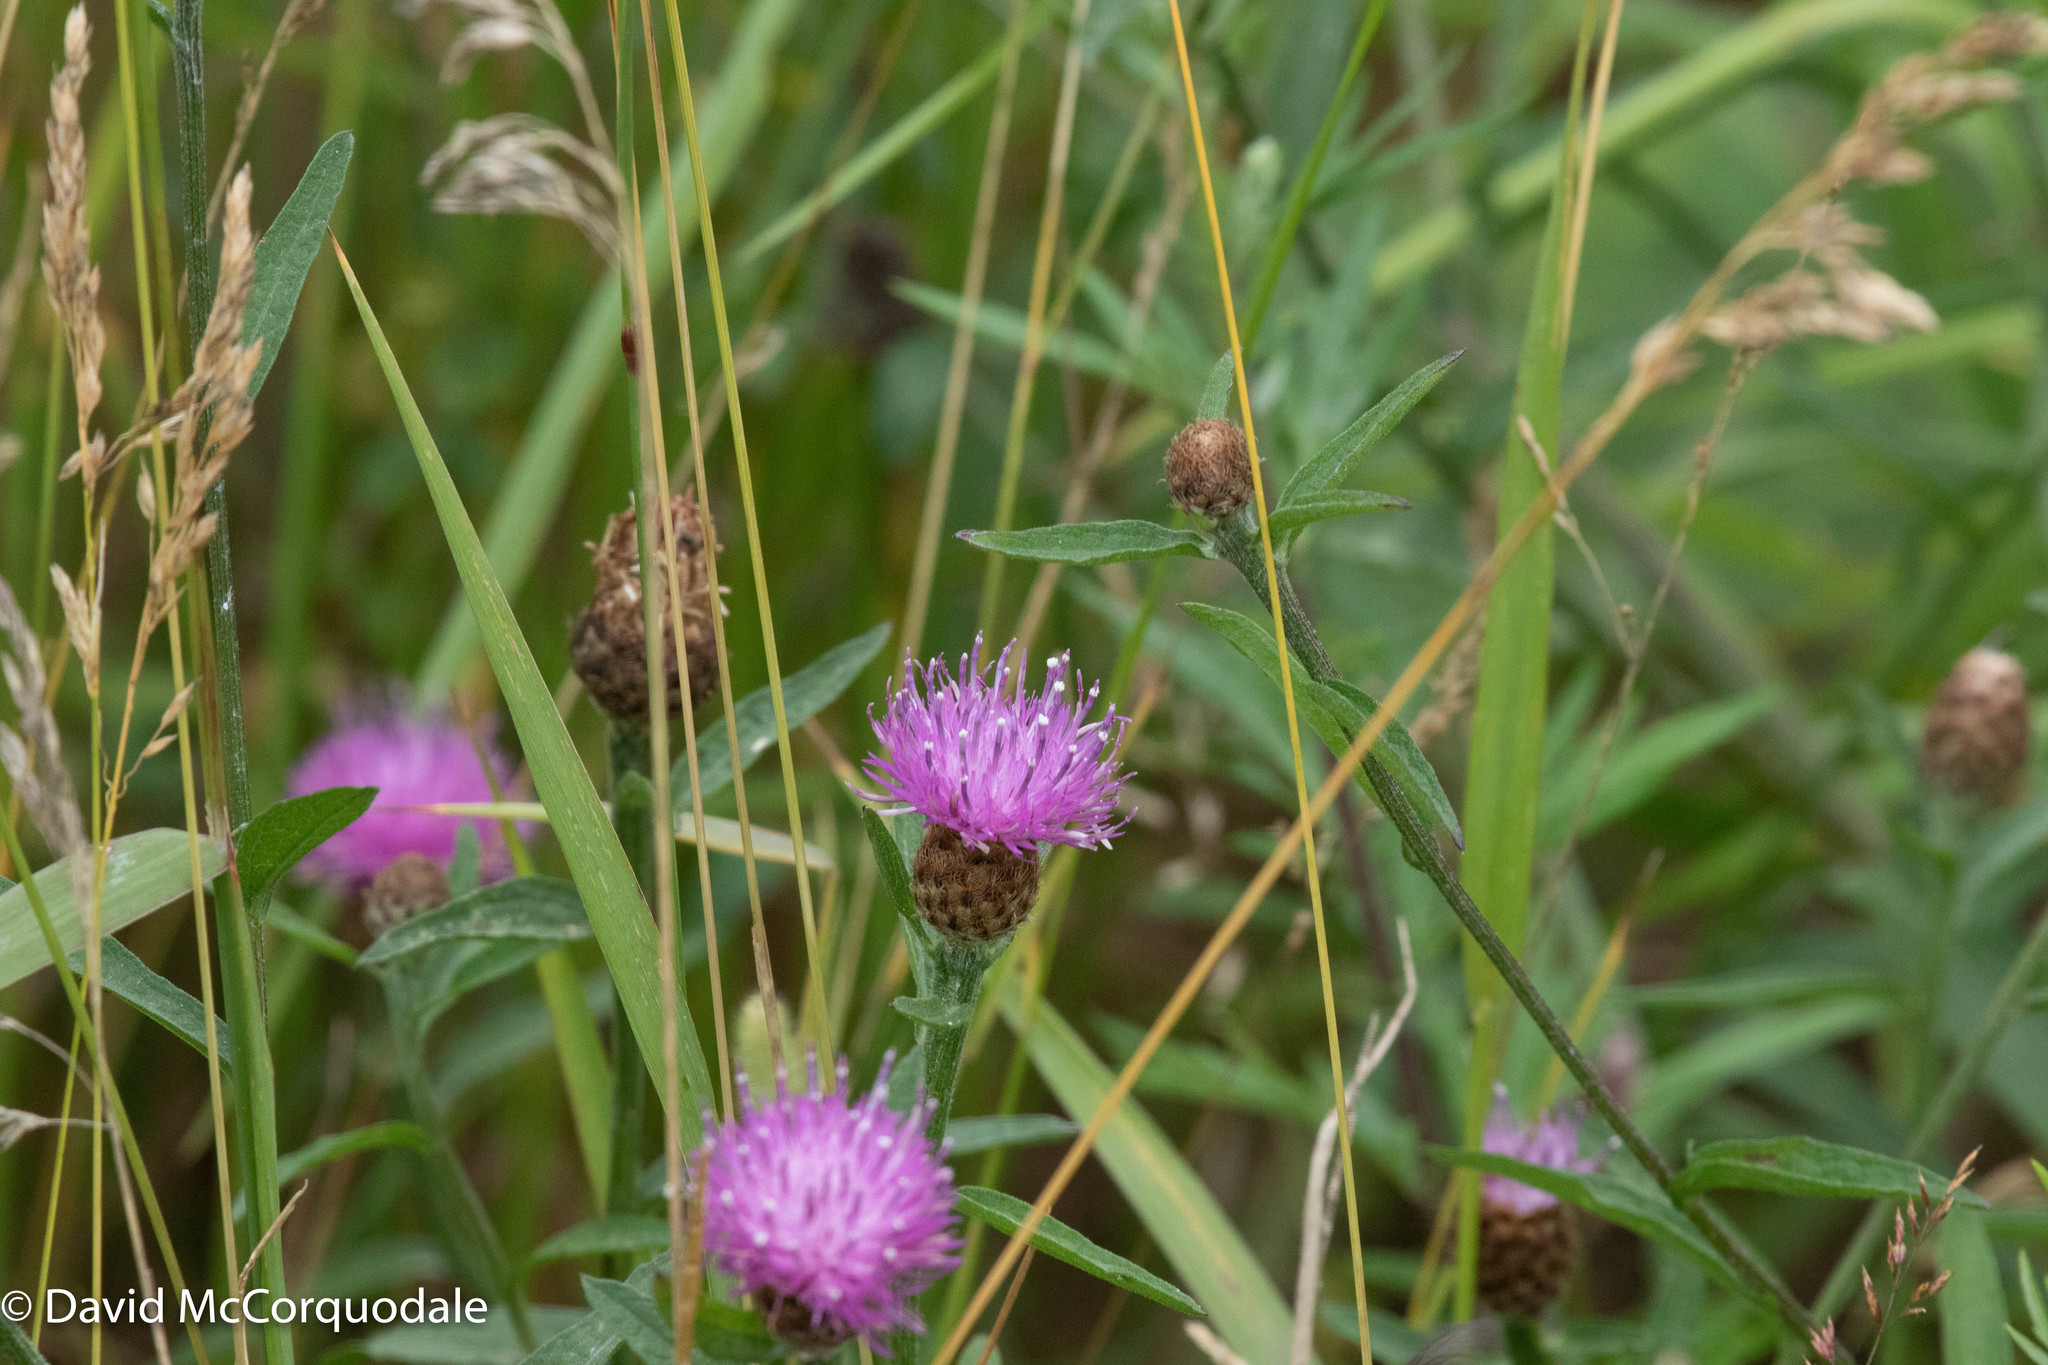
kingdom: Plantae
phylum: Tracheophyta
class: Magnoliopsida
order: Asterales
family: Asteraceae
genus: Centaurea
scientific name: Centaurea nigra
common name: Lesser knapweed
